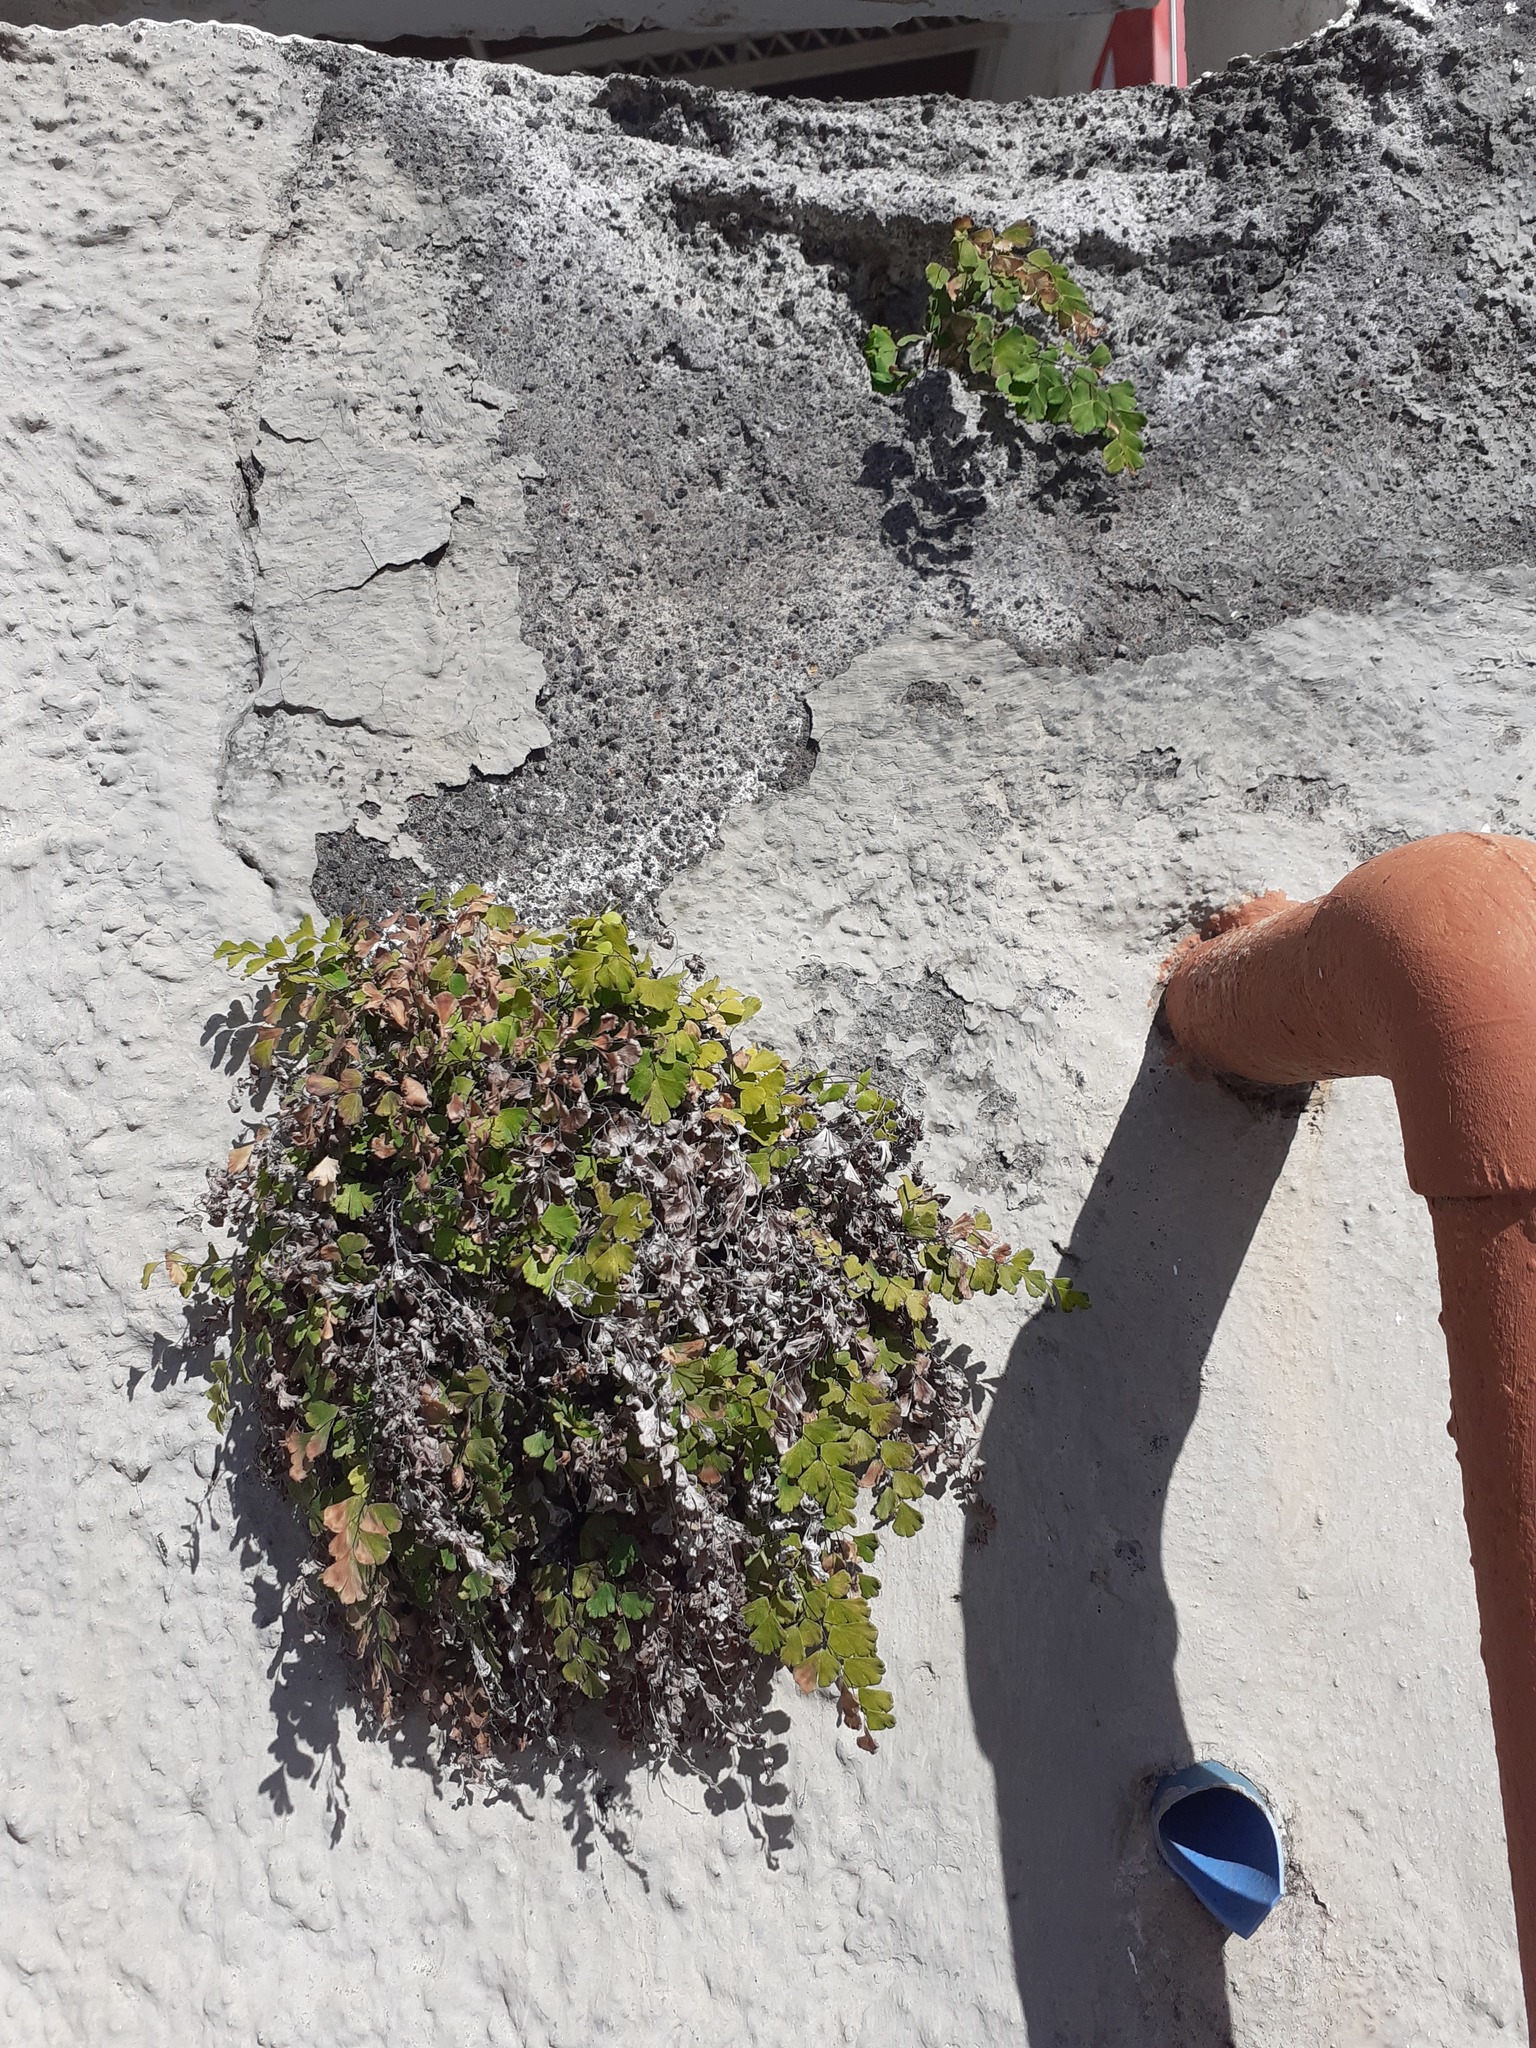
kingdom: Plantae
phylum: Tracheophyta
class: Polypodiopsida
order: Polypodiales
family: Pteridaceae
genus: Adiantum
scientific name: Adiantum capillus-veneris
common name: Maidenhair fern
